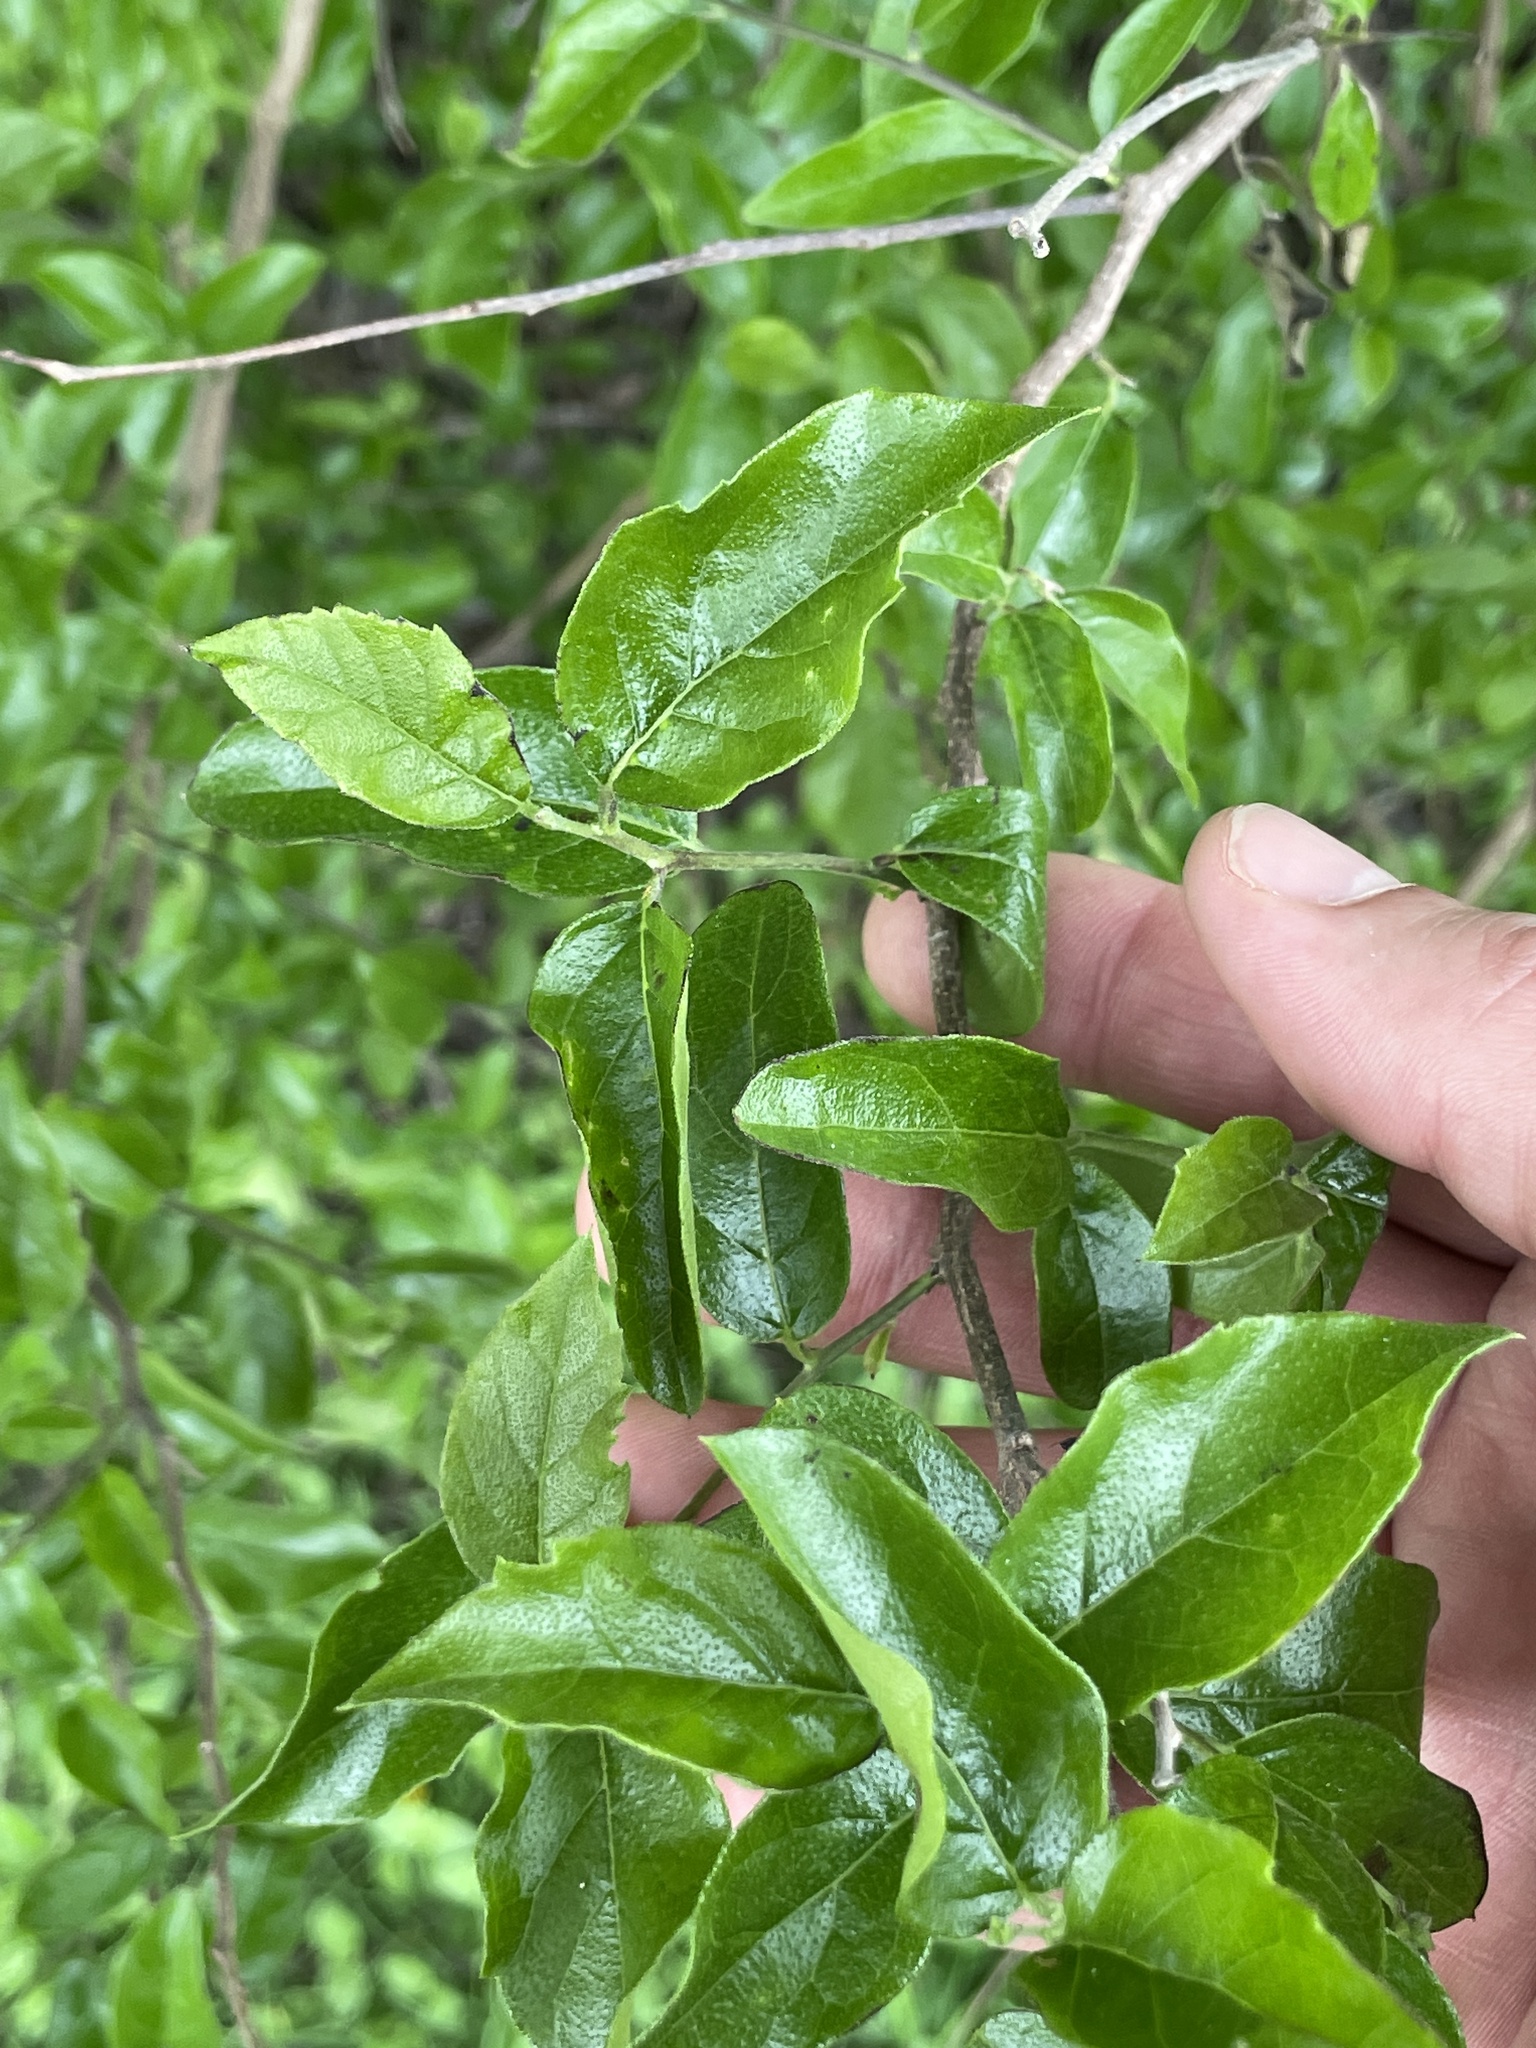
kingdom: Plantae
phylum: Tracheophyta
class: Magnoliopsida
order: Boraginales
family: Ehretiaceae
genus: Ehretia
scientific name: Ehretia anacua
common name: Sugarberry
